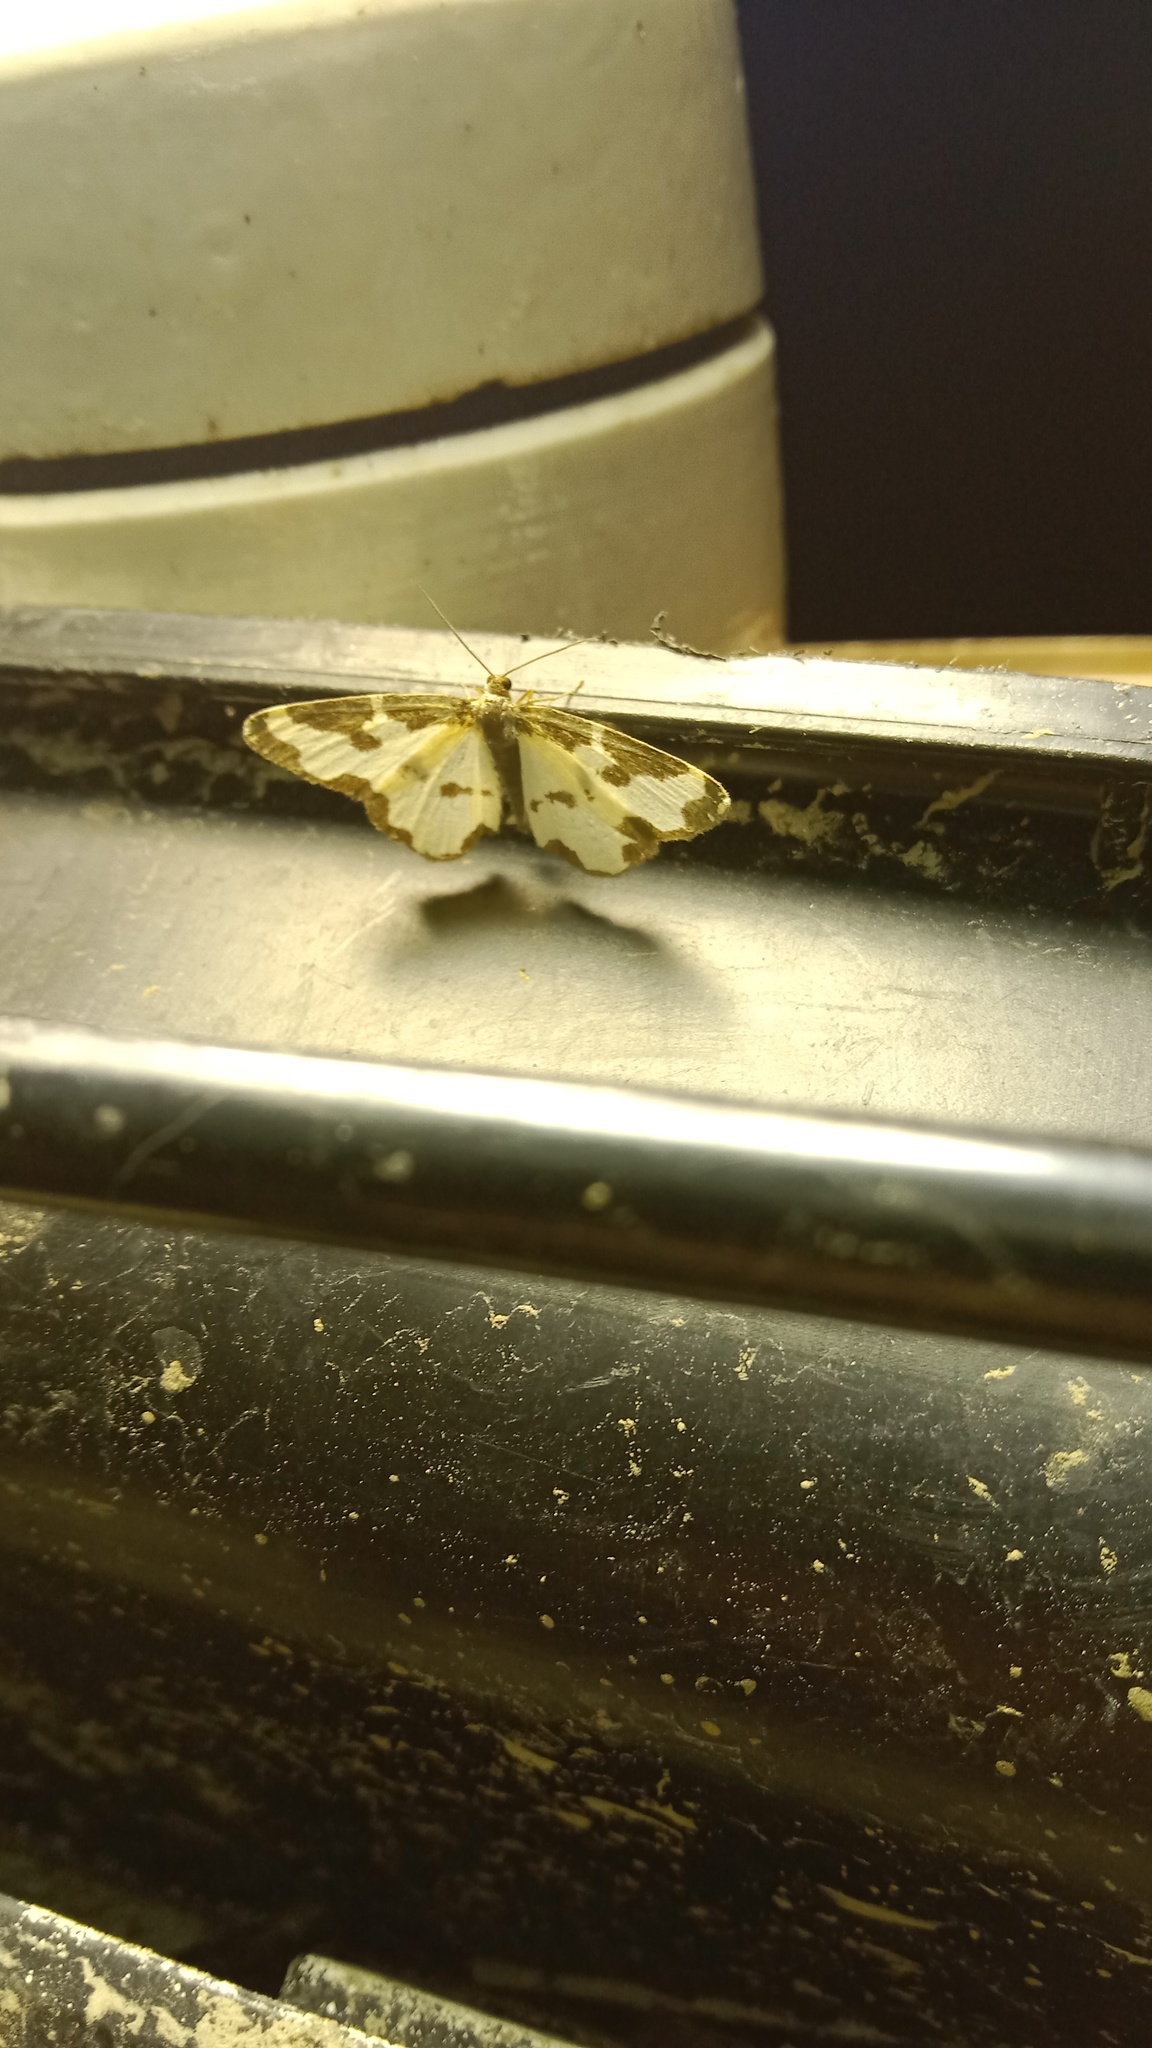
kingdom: Animalia
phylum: Arthropoda
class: Insecta
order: Lepidoptera
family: Geometridae
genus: Lomaspilis
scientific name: Lomaspilis marginata
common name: Clouded border
